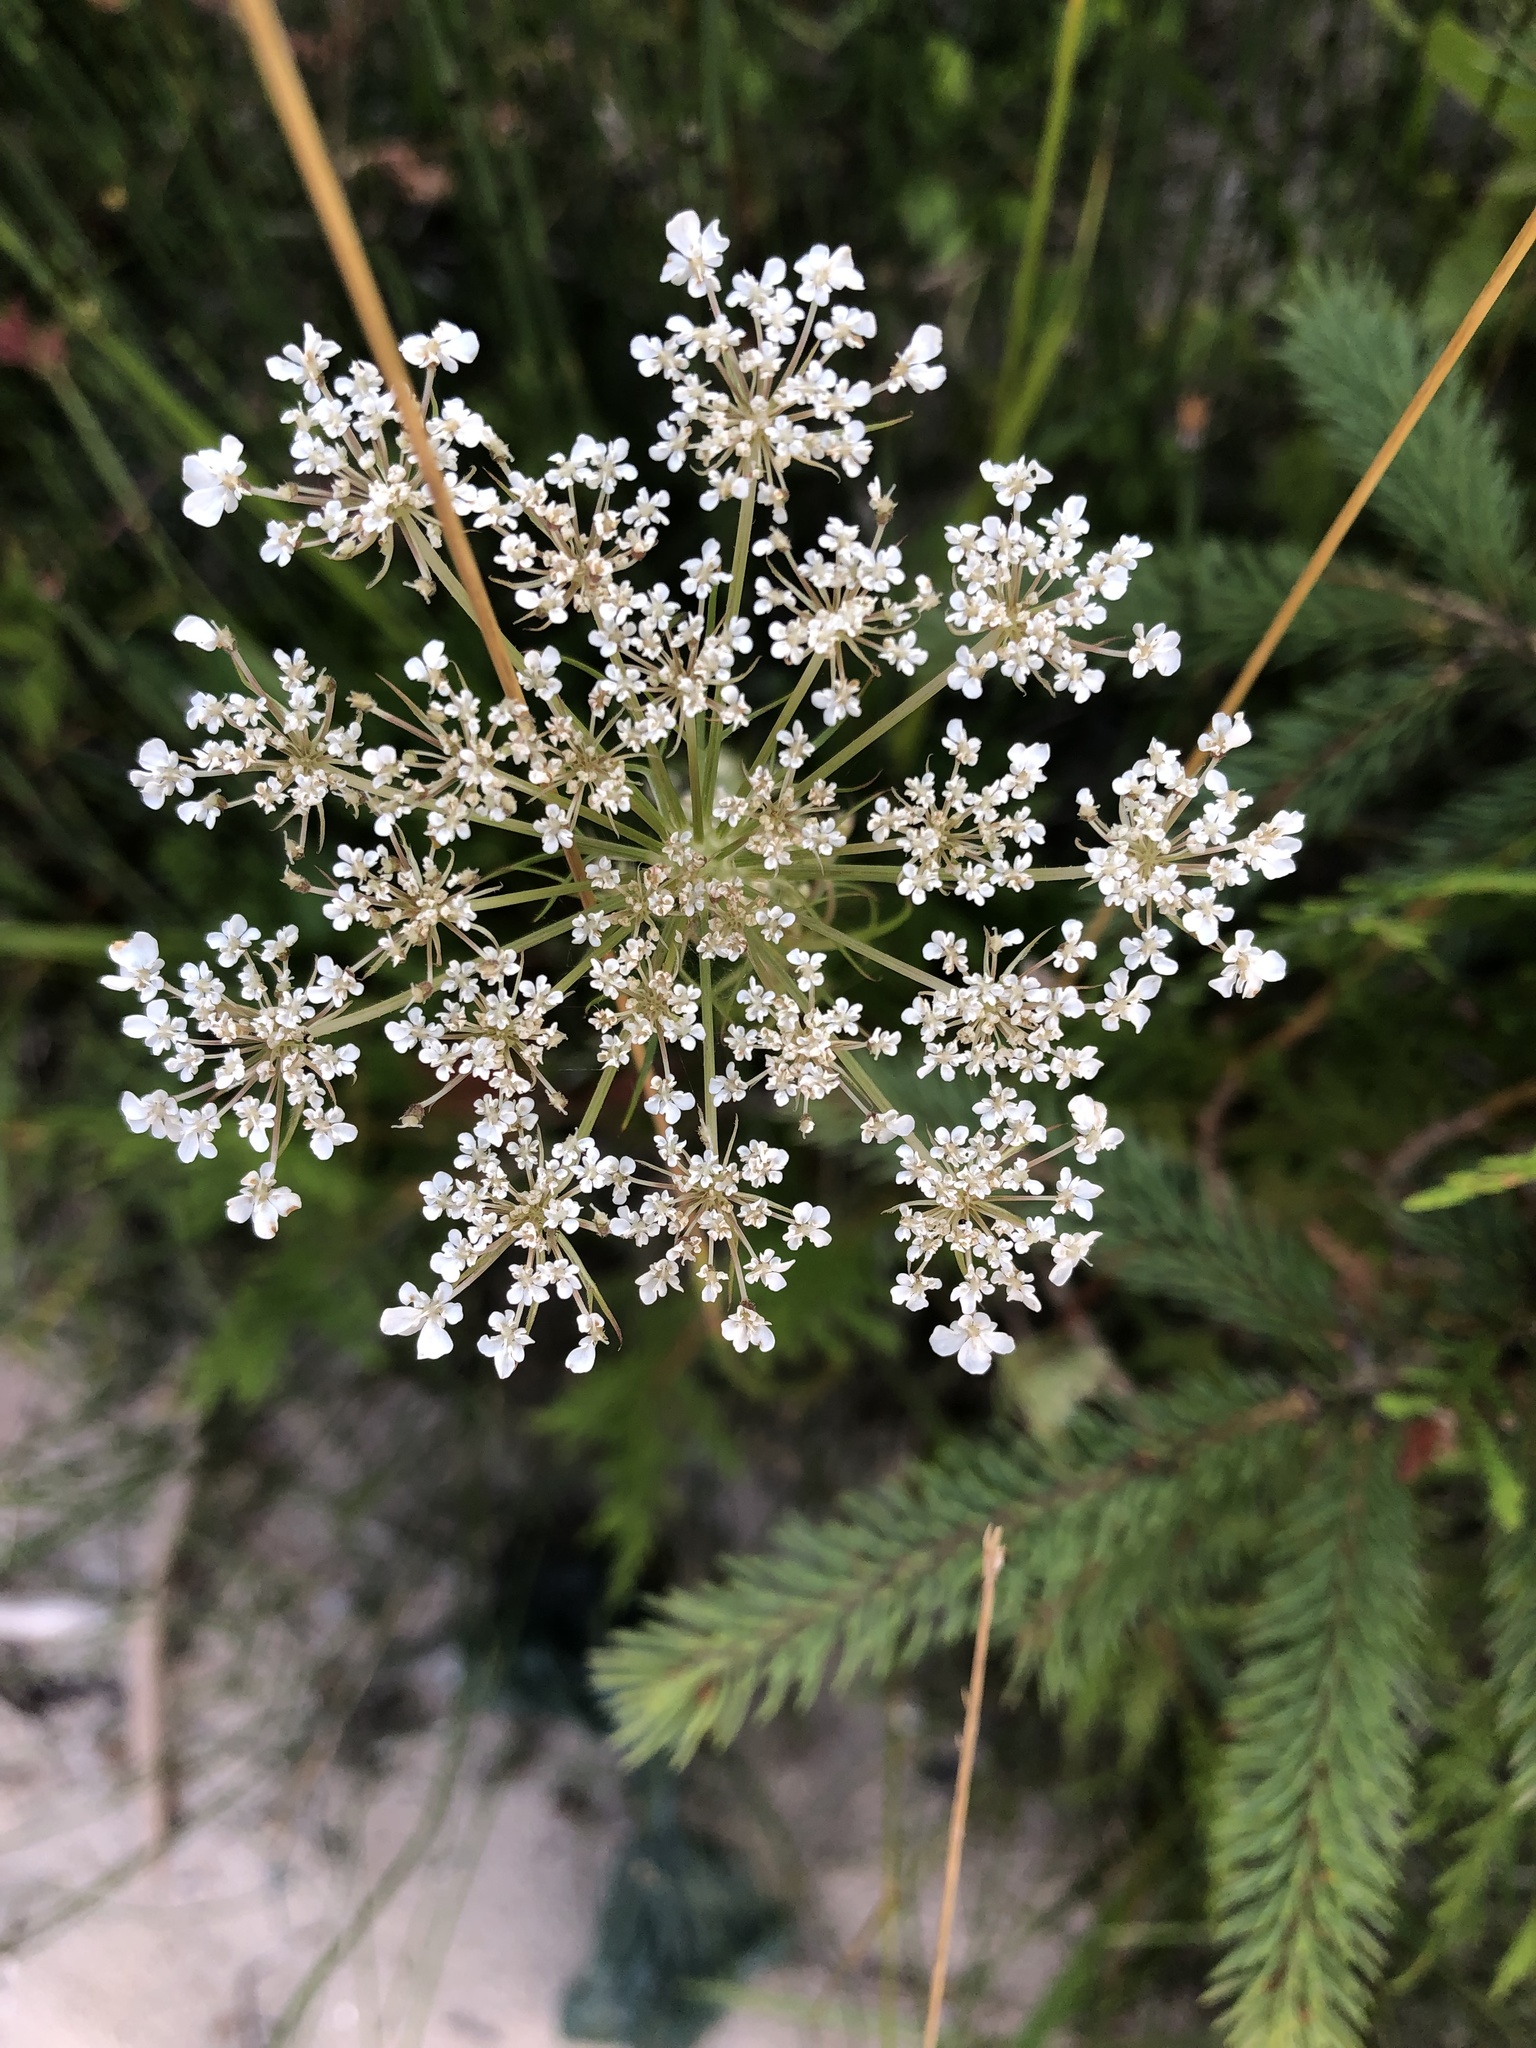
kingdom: Plantae
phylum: Tracheophyta
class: Magnoliopsida
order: Apiales
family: Apiaceae
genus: Daucus
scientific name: Daucus carota
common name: Wild carrot
